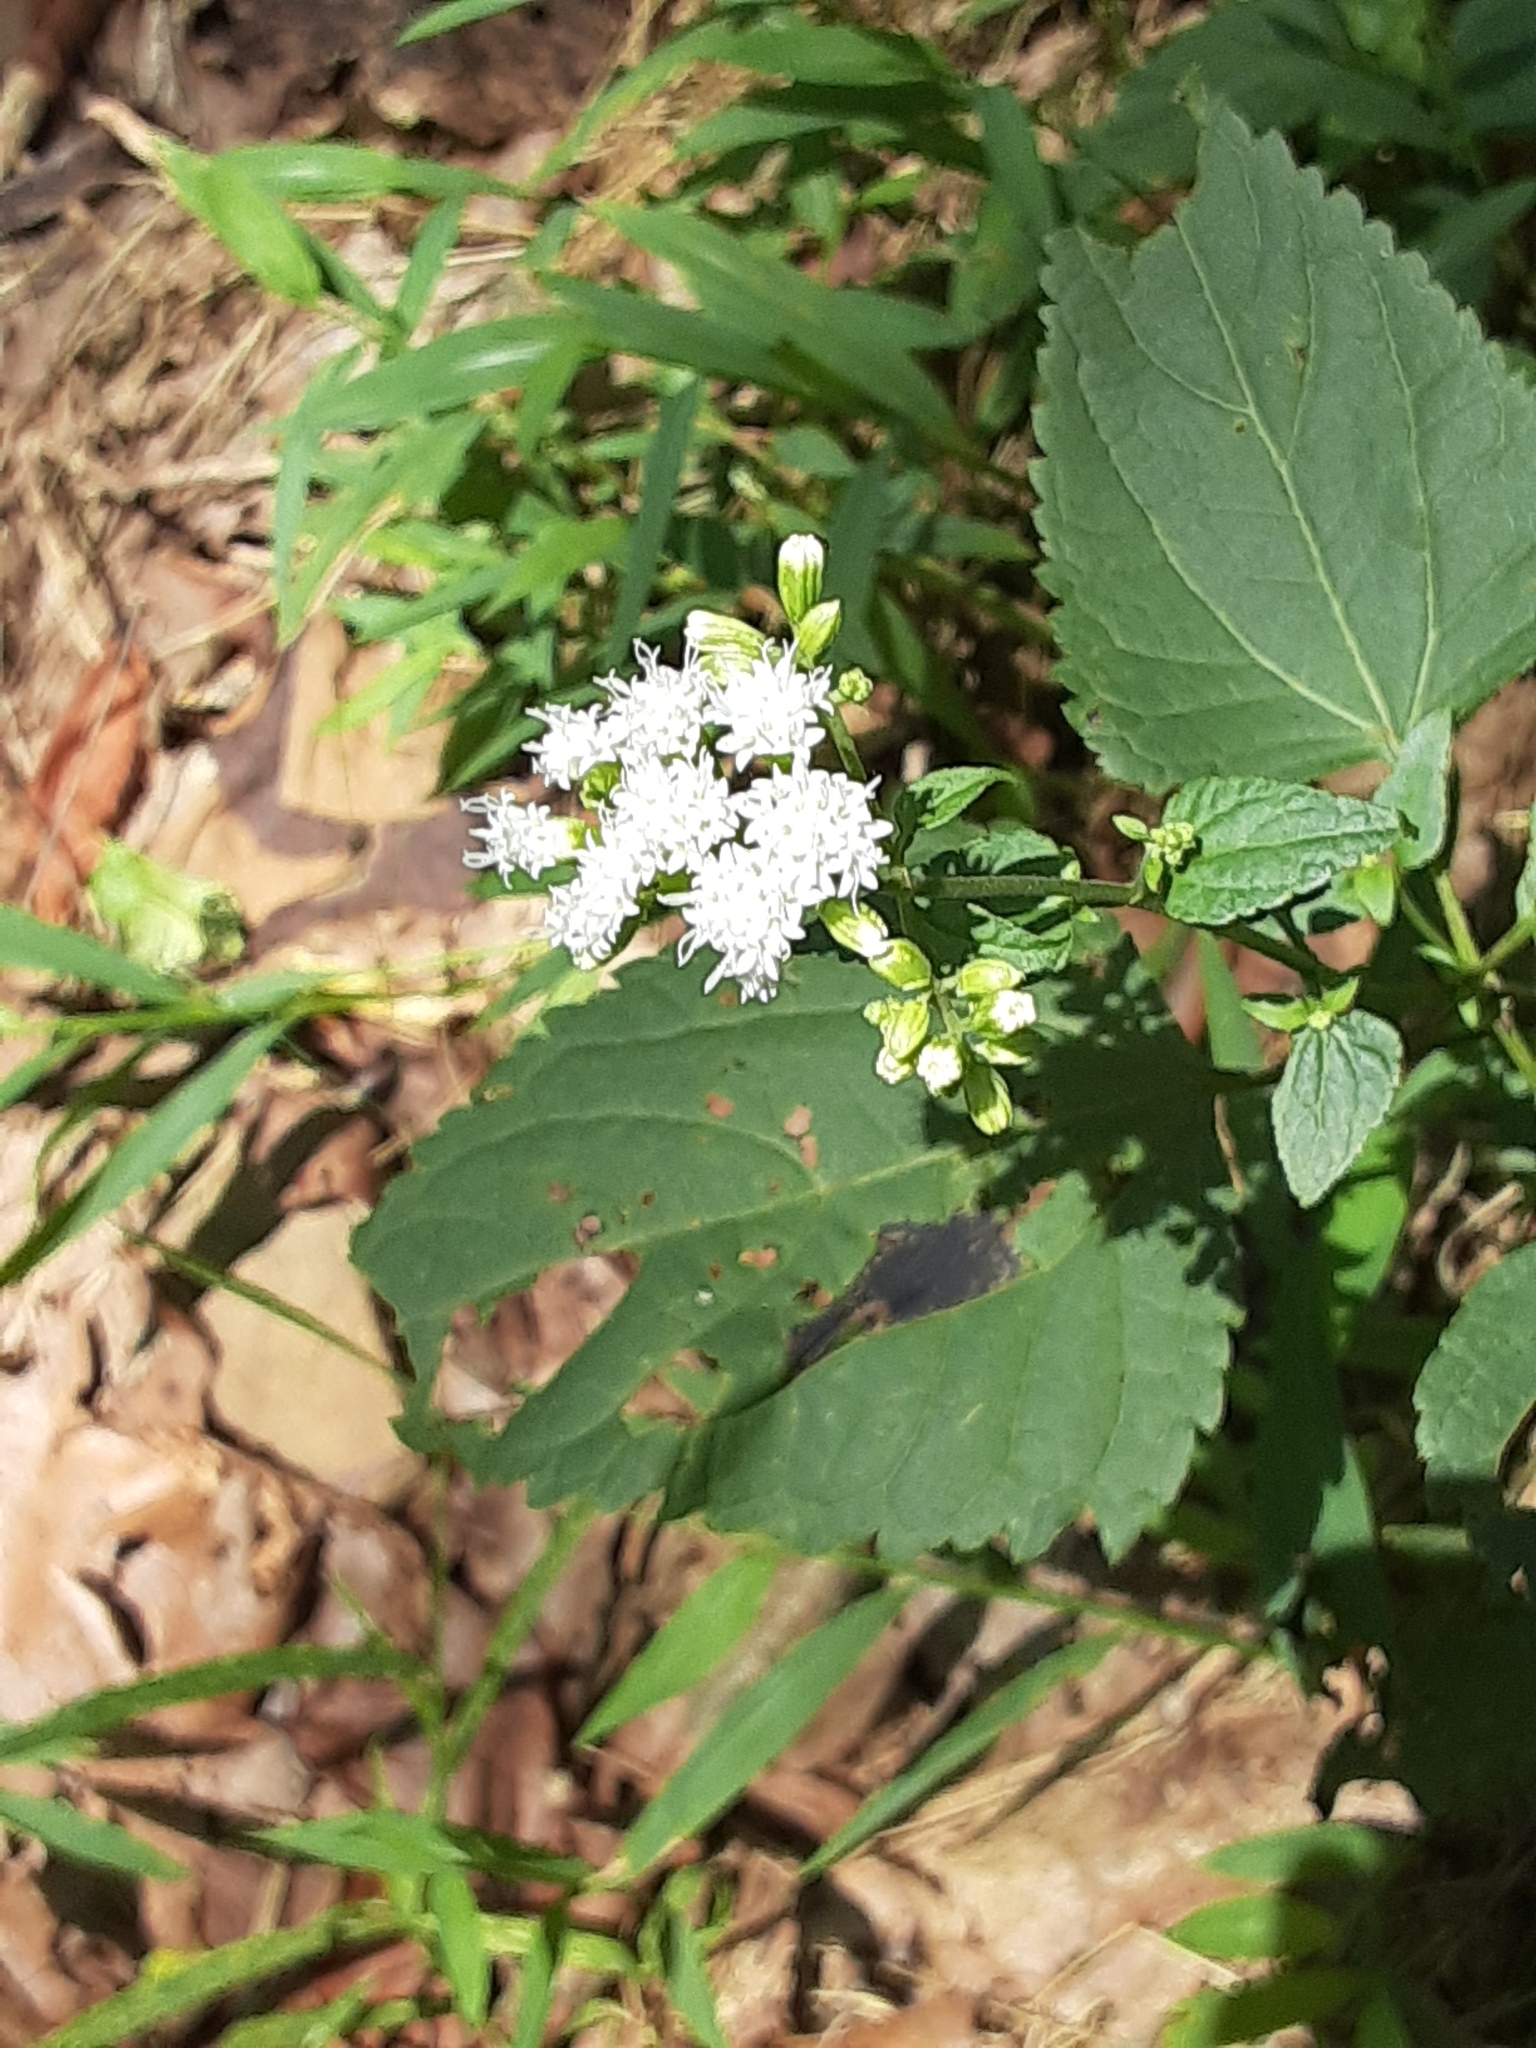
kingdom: Plantae
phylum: Tracheophyta
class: Magnoliopsida
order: Asterales
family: Asteraceae
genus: Ageratina
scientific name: Ageratina altissima
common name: White snakeroot
